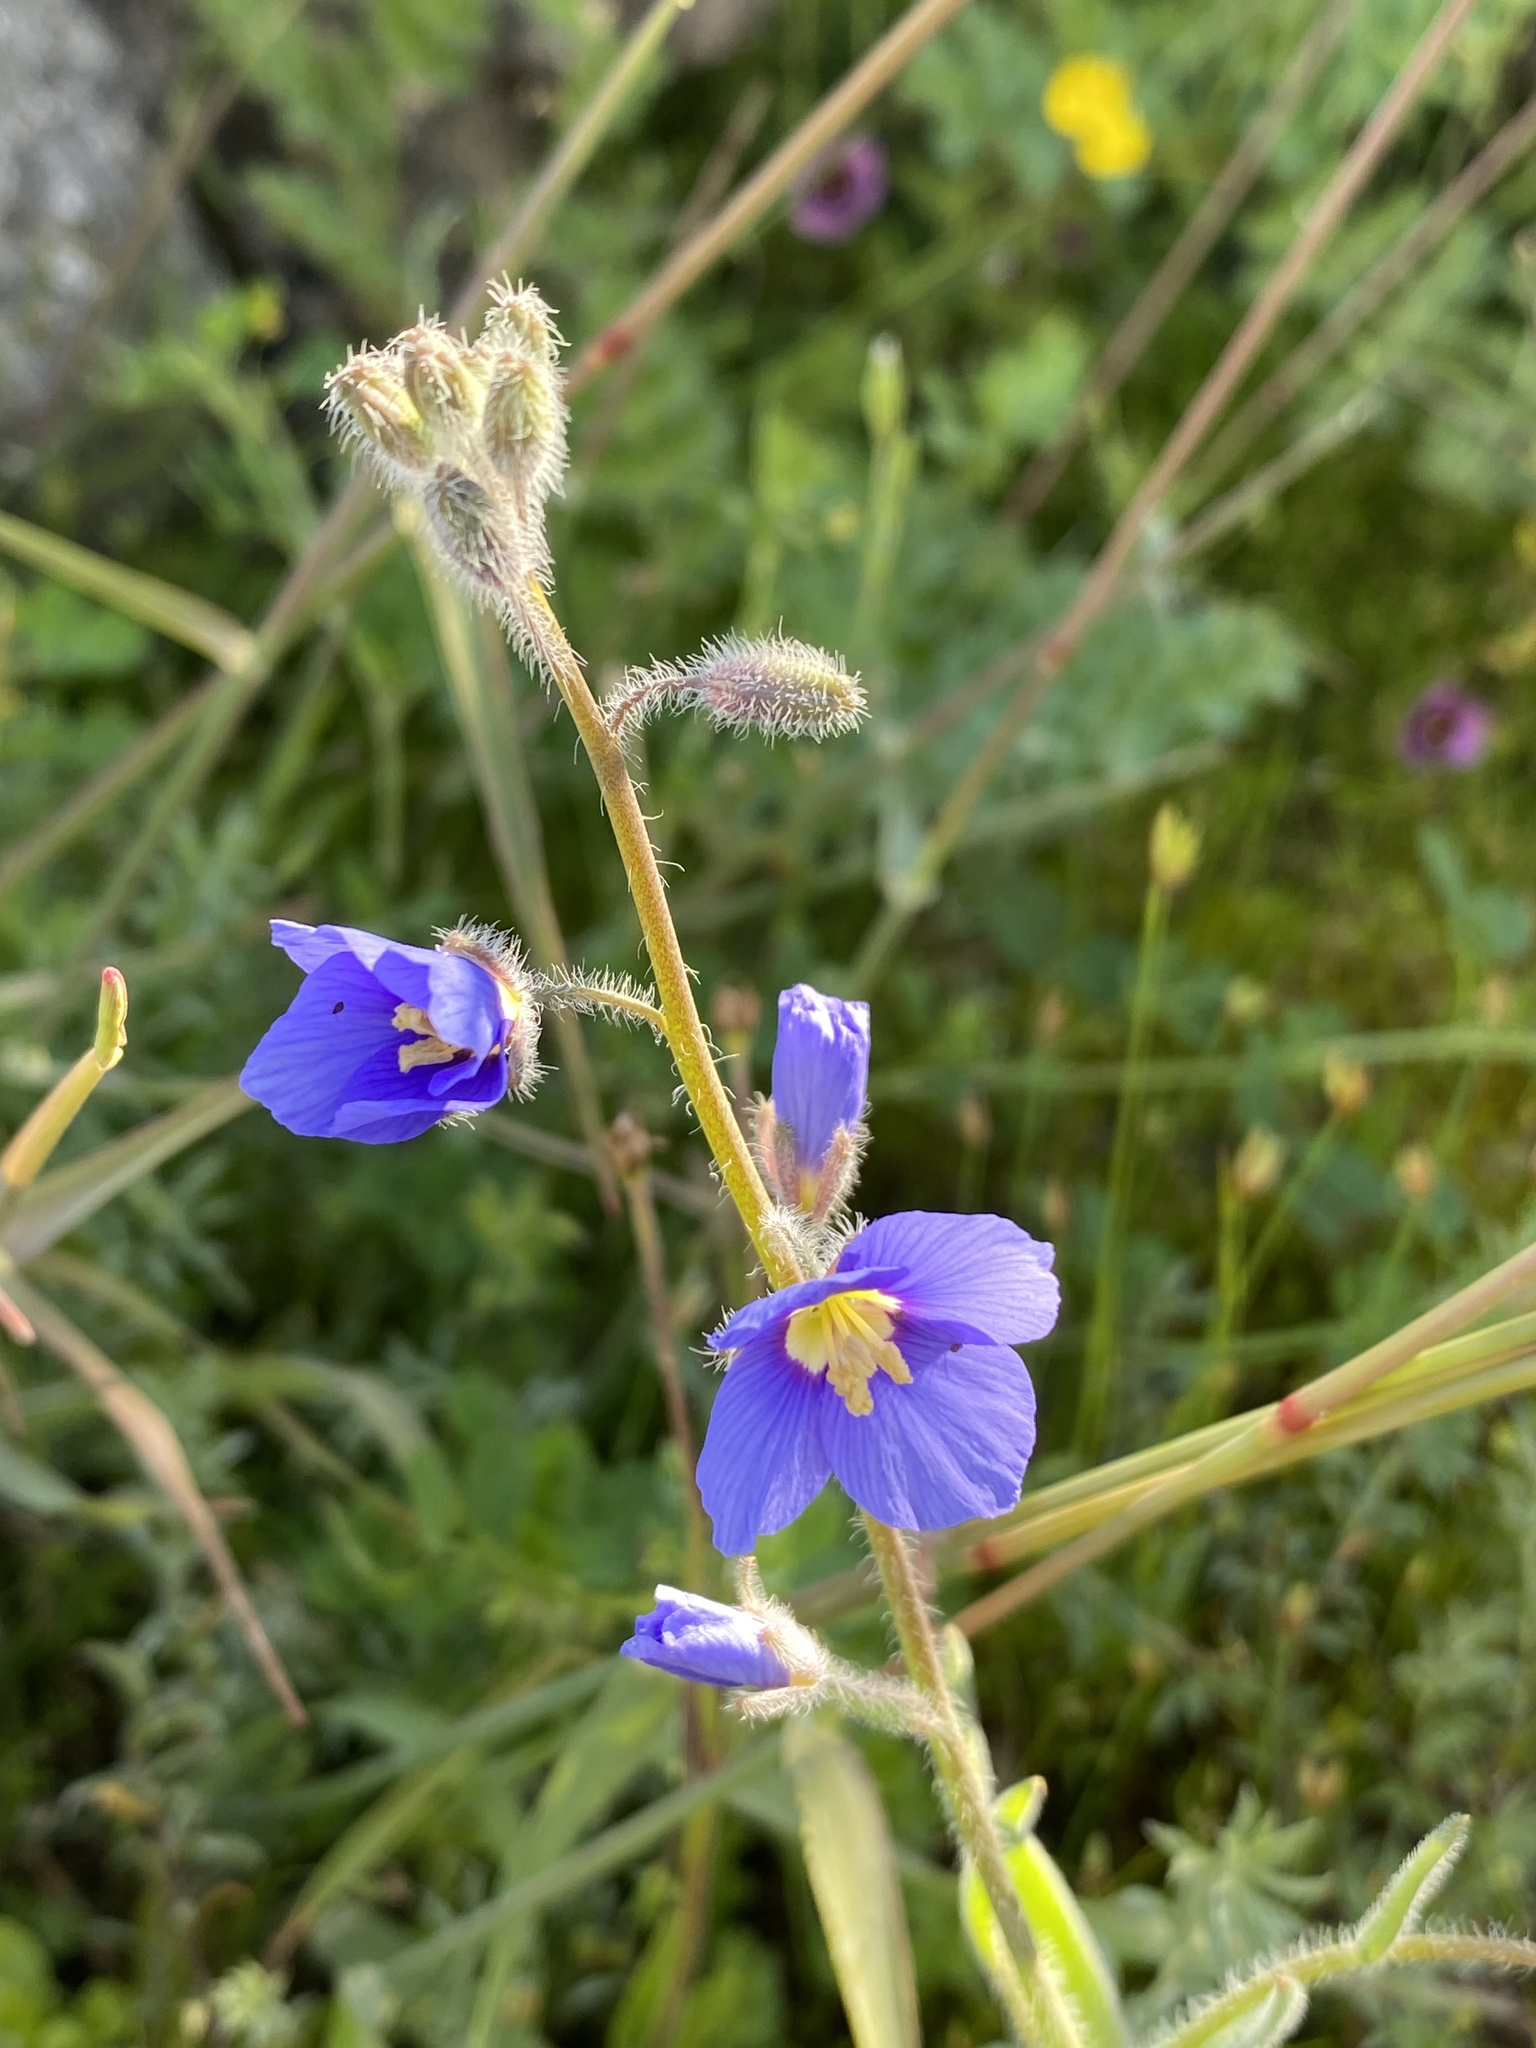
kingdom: Plantae
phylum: Tracheophyta
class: Magnoliopsida
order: Brassicales
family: Brassicaceae
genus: Heliophila
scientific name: Heliophila africana
